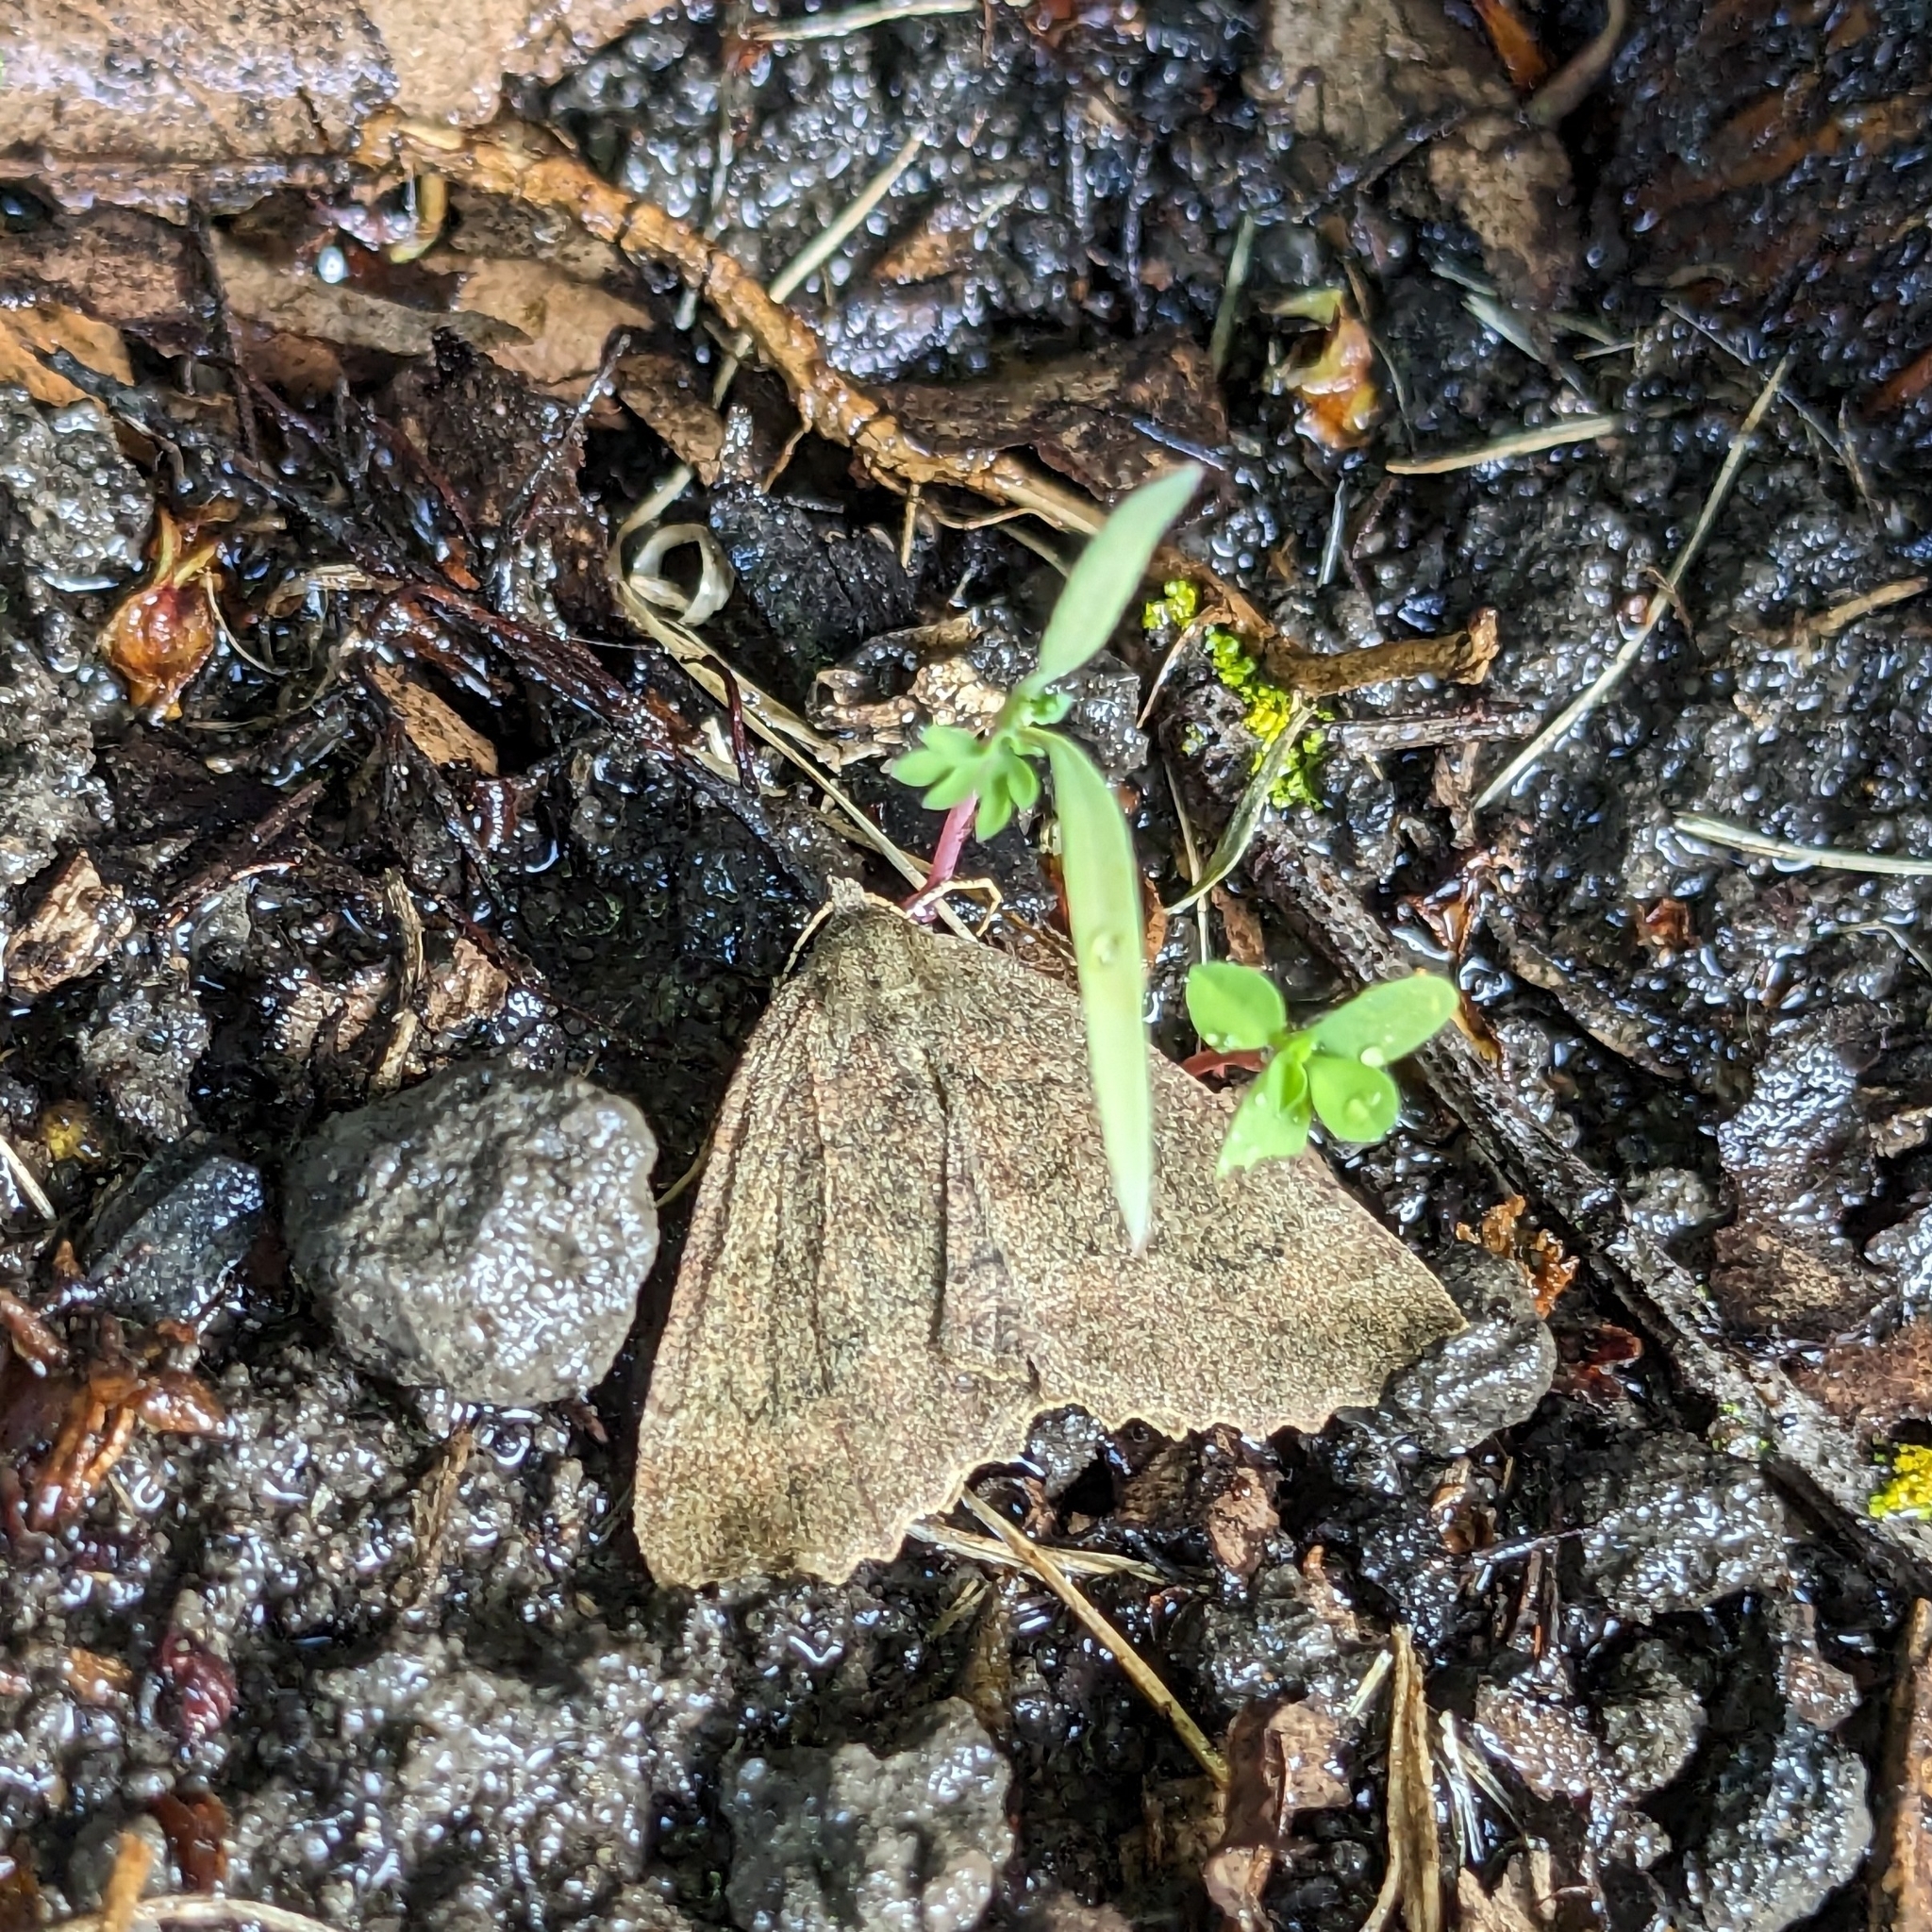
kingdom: Animalia
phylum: Arthropoda
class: Insecta
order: Lepidoptera
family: Geometridae
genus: Cleora
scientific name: Cleora scriptaria
